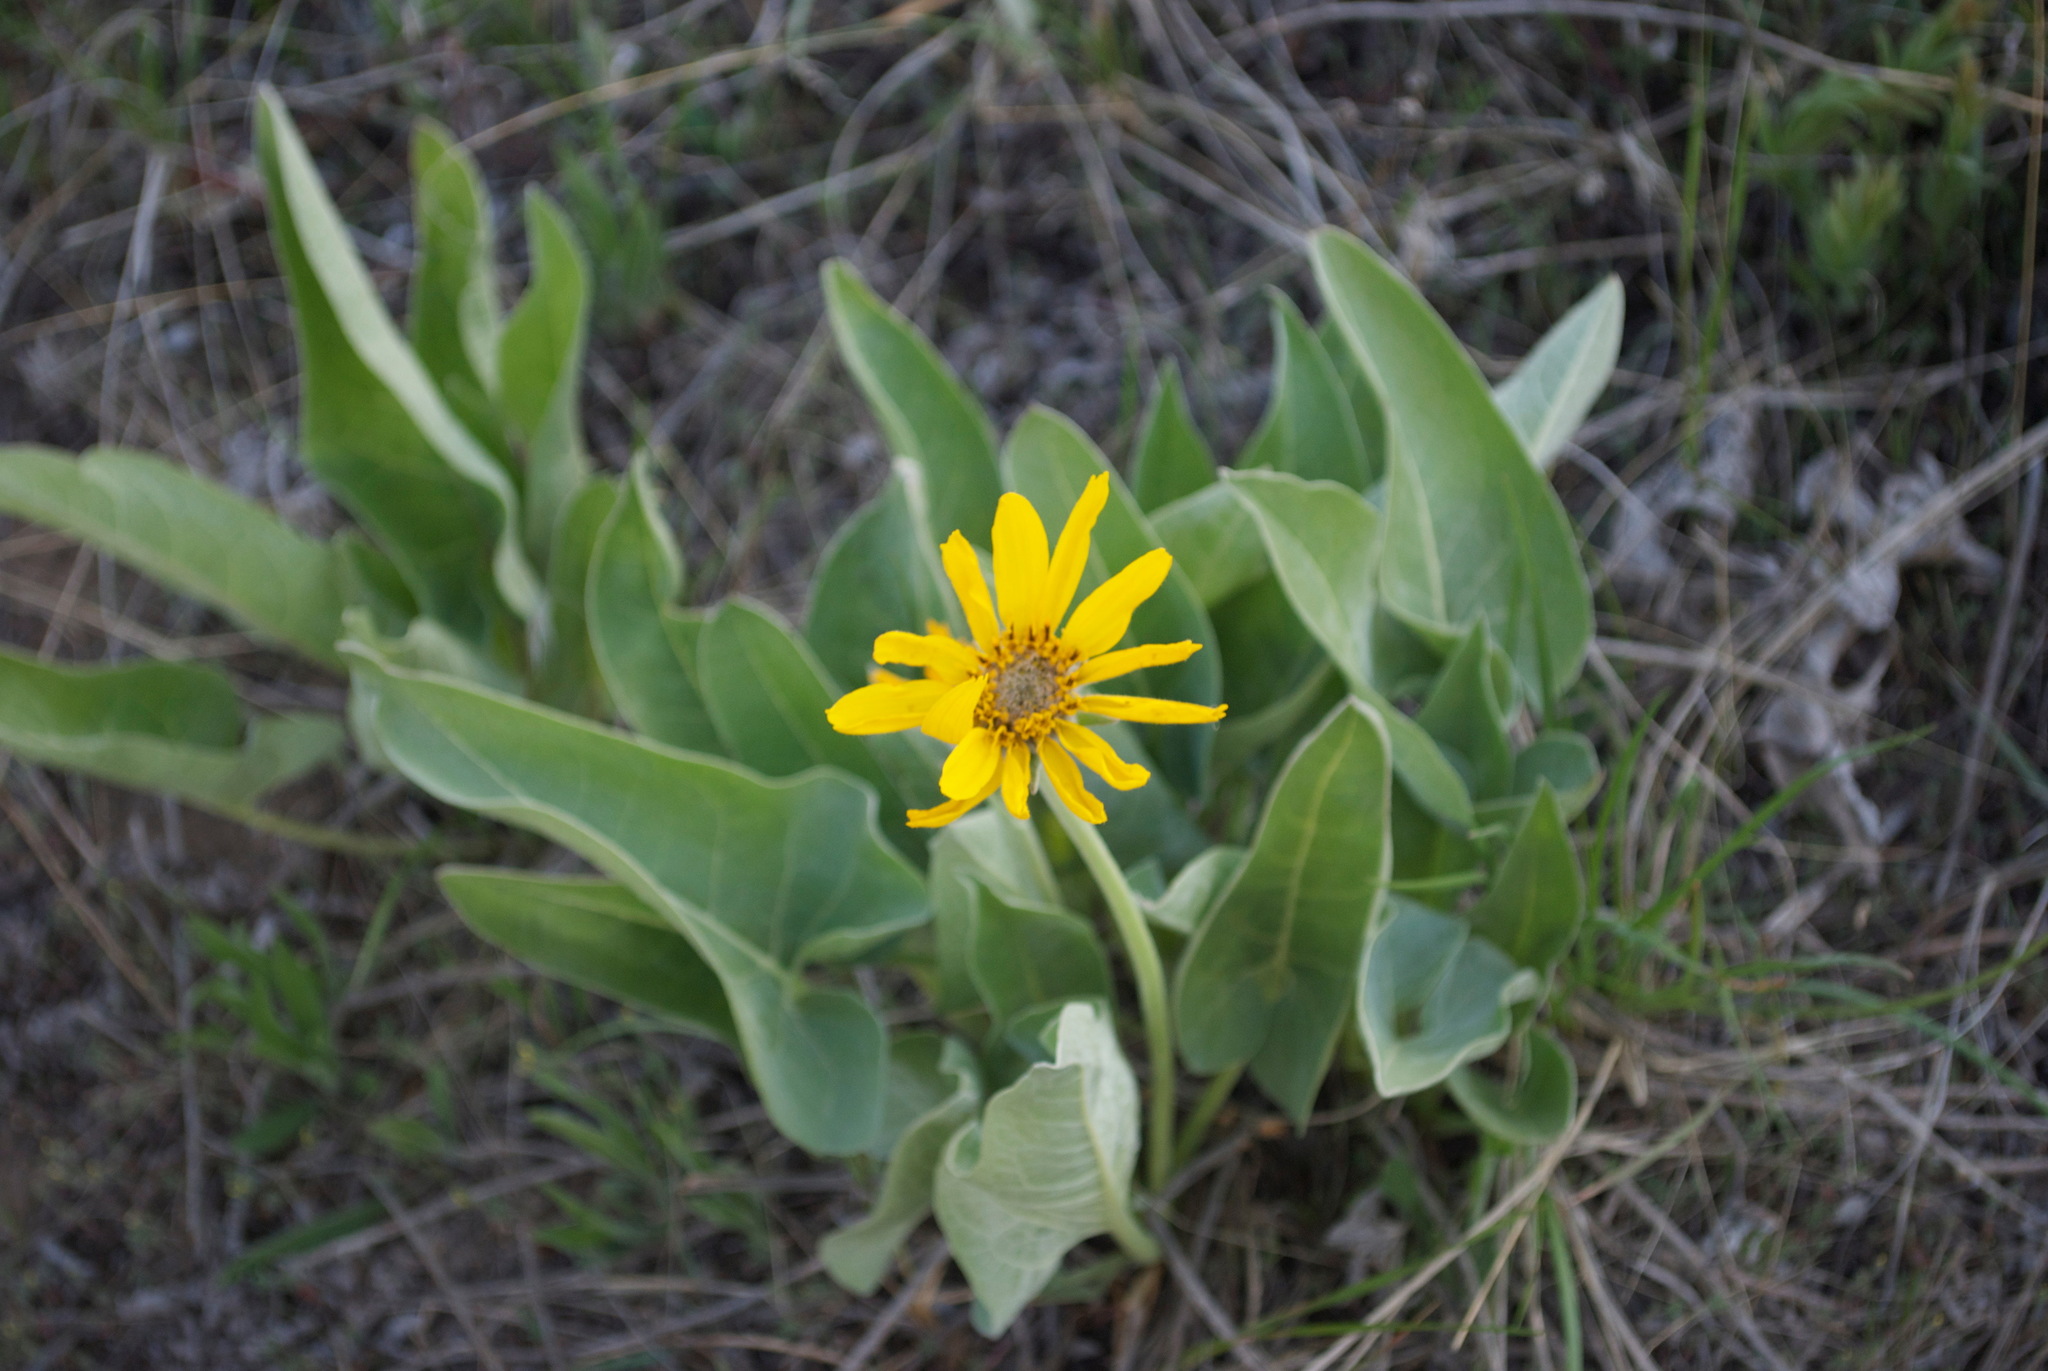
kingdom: Plantae
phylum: Tracheophyta
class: Magnoliopsida
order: Asterales
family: Asteraceae
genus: Wyethia
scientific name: Wyethia sagittata
